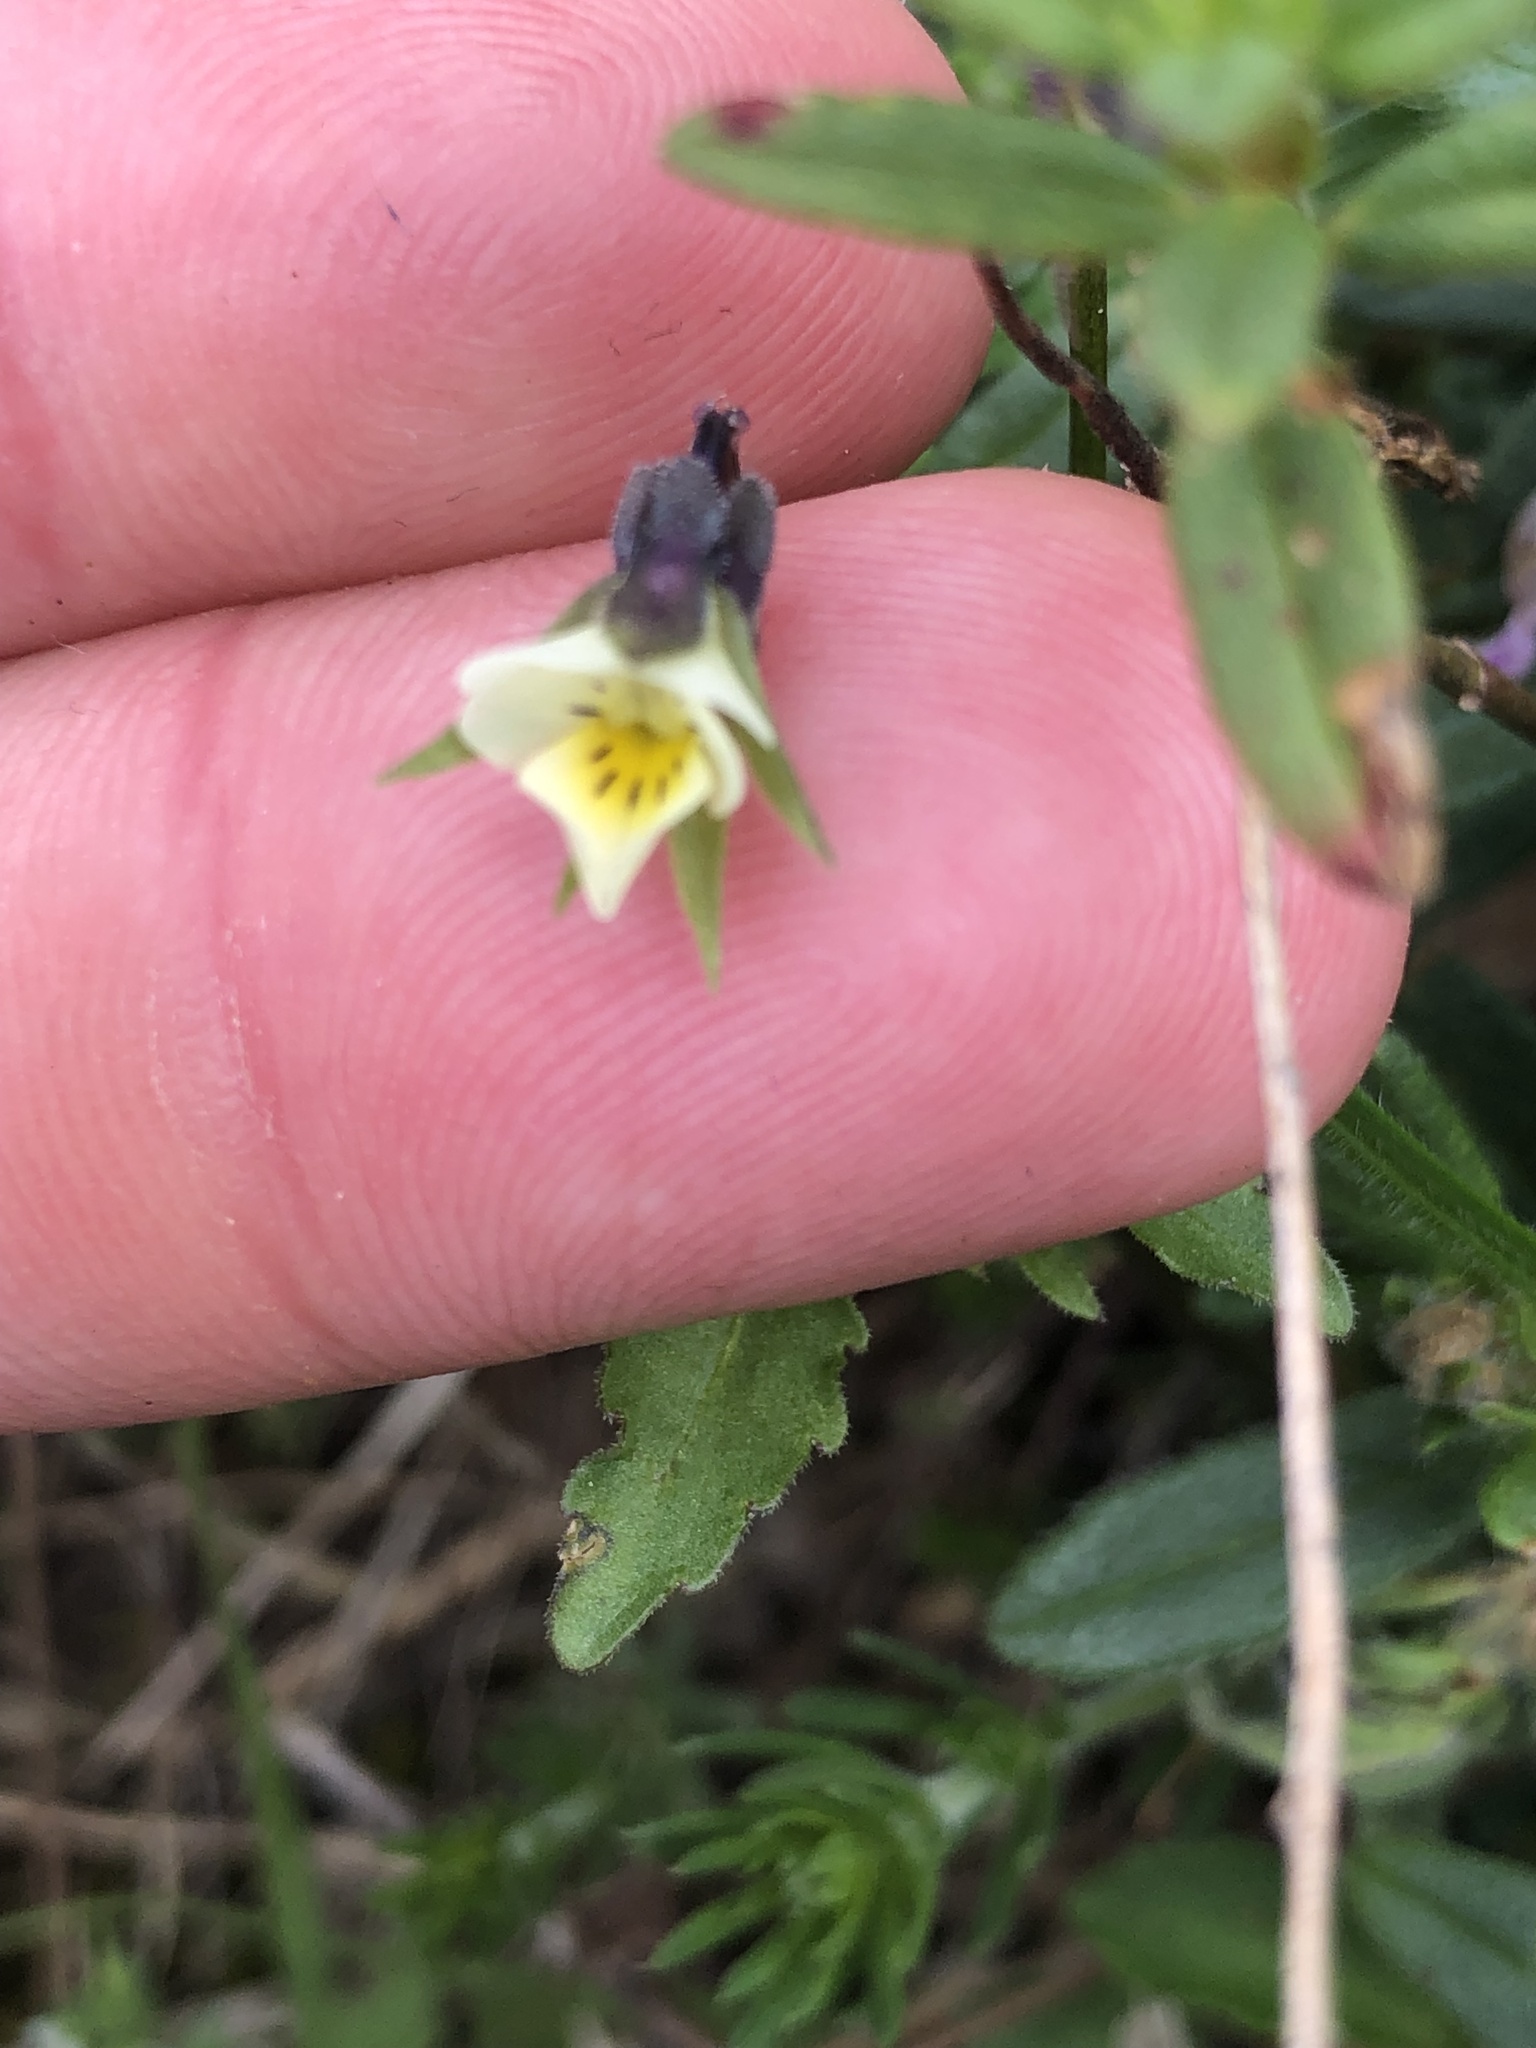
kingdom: Plantae
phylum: Tracheophyta
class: Magnoliopsida
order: Malpighiales
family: Violaceae
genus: Viola
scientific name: Viola arvensis
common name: Field pansy
